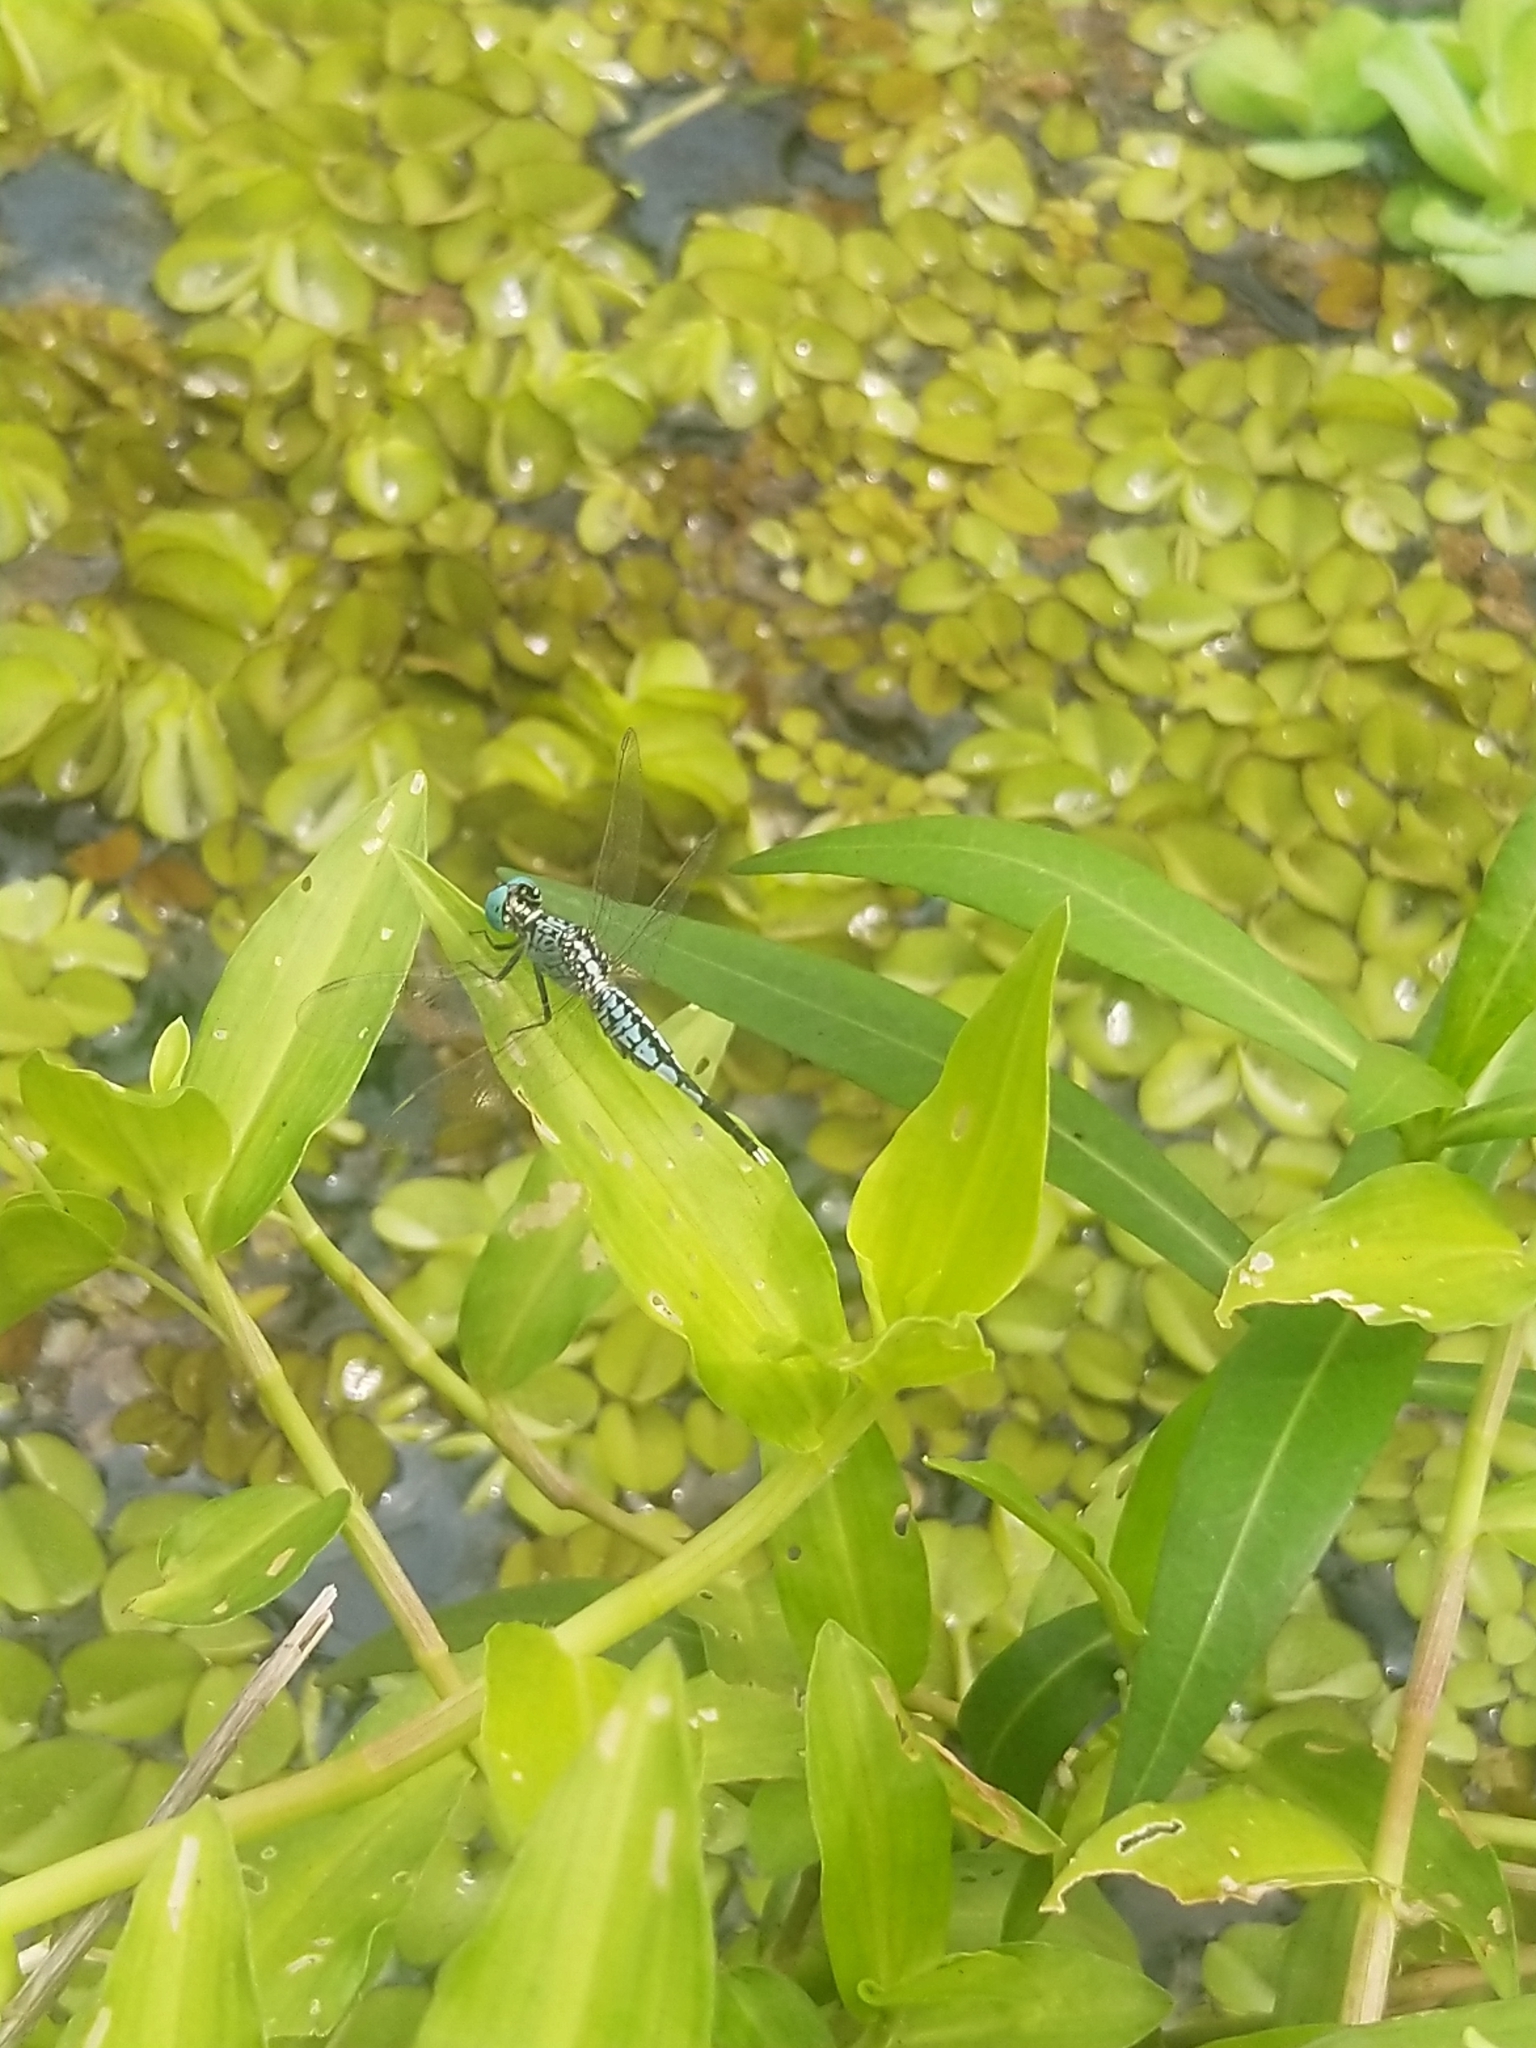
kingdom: Animalia
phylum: Arthropoda
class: Insecta
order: Odonata
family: Libellulidae
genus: Acisoma
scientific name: Acisoma panorpoides
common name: Asian pintail
